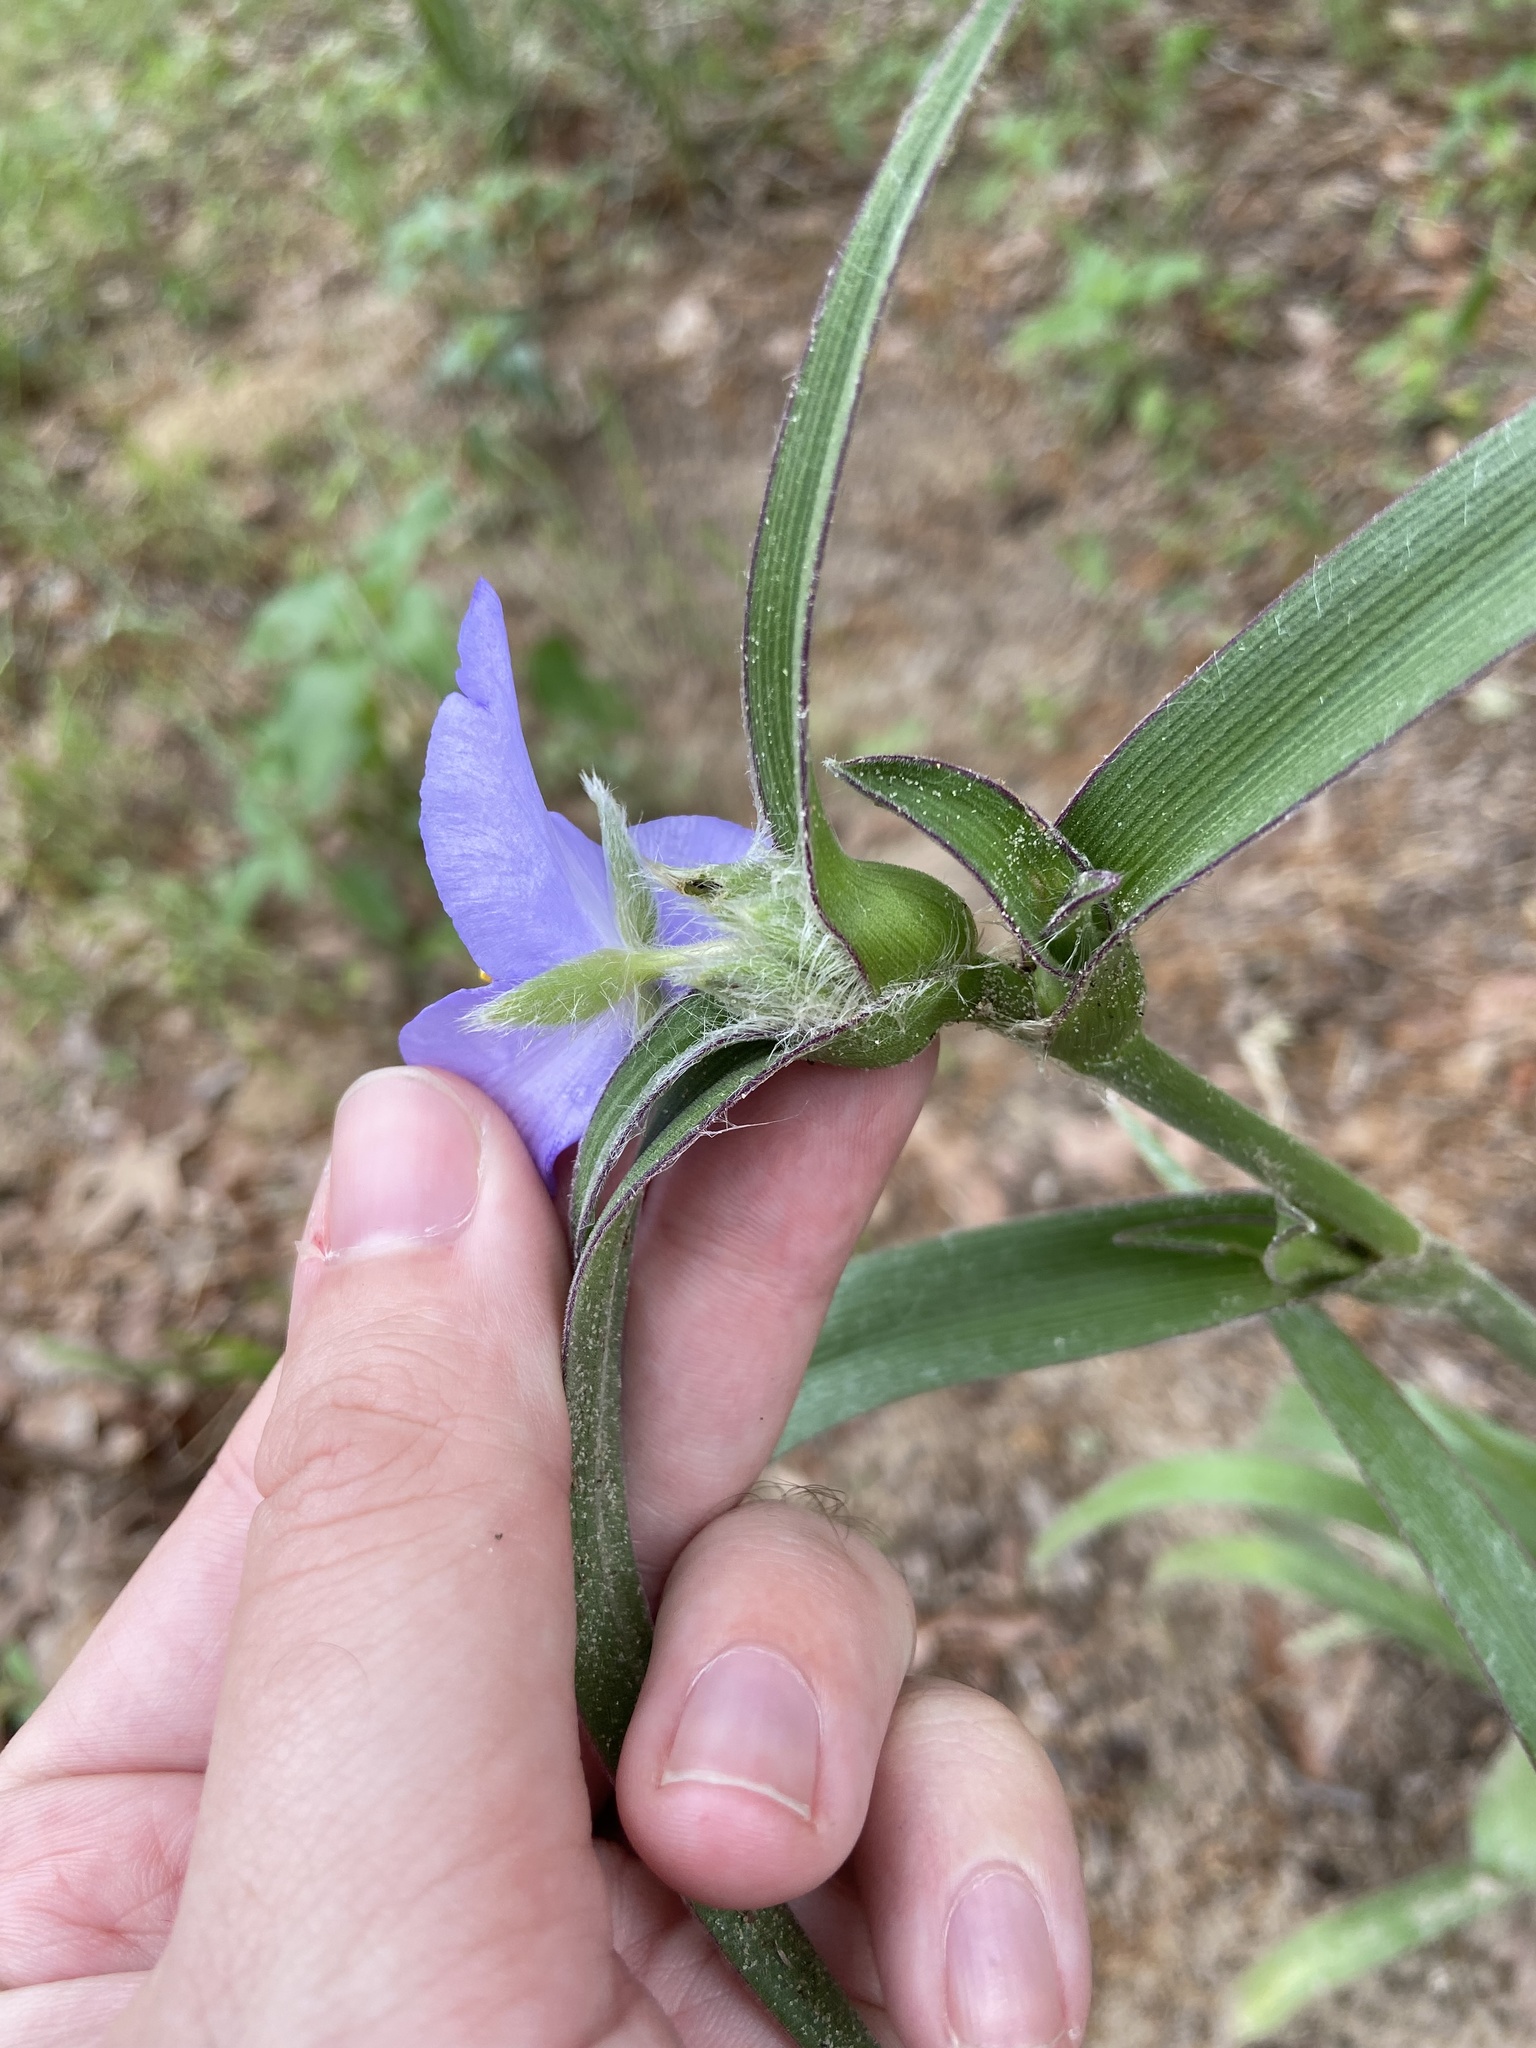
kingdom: Plantae
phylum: Tracheophyta
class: Liliopsida
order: Commelinales
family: Commelinaceae
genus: Tradescantia
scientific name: Tradescantia reverchonii
